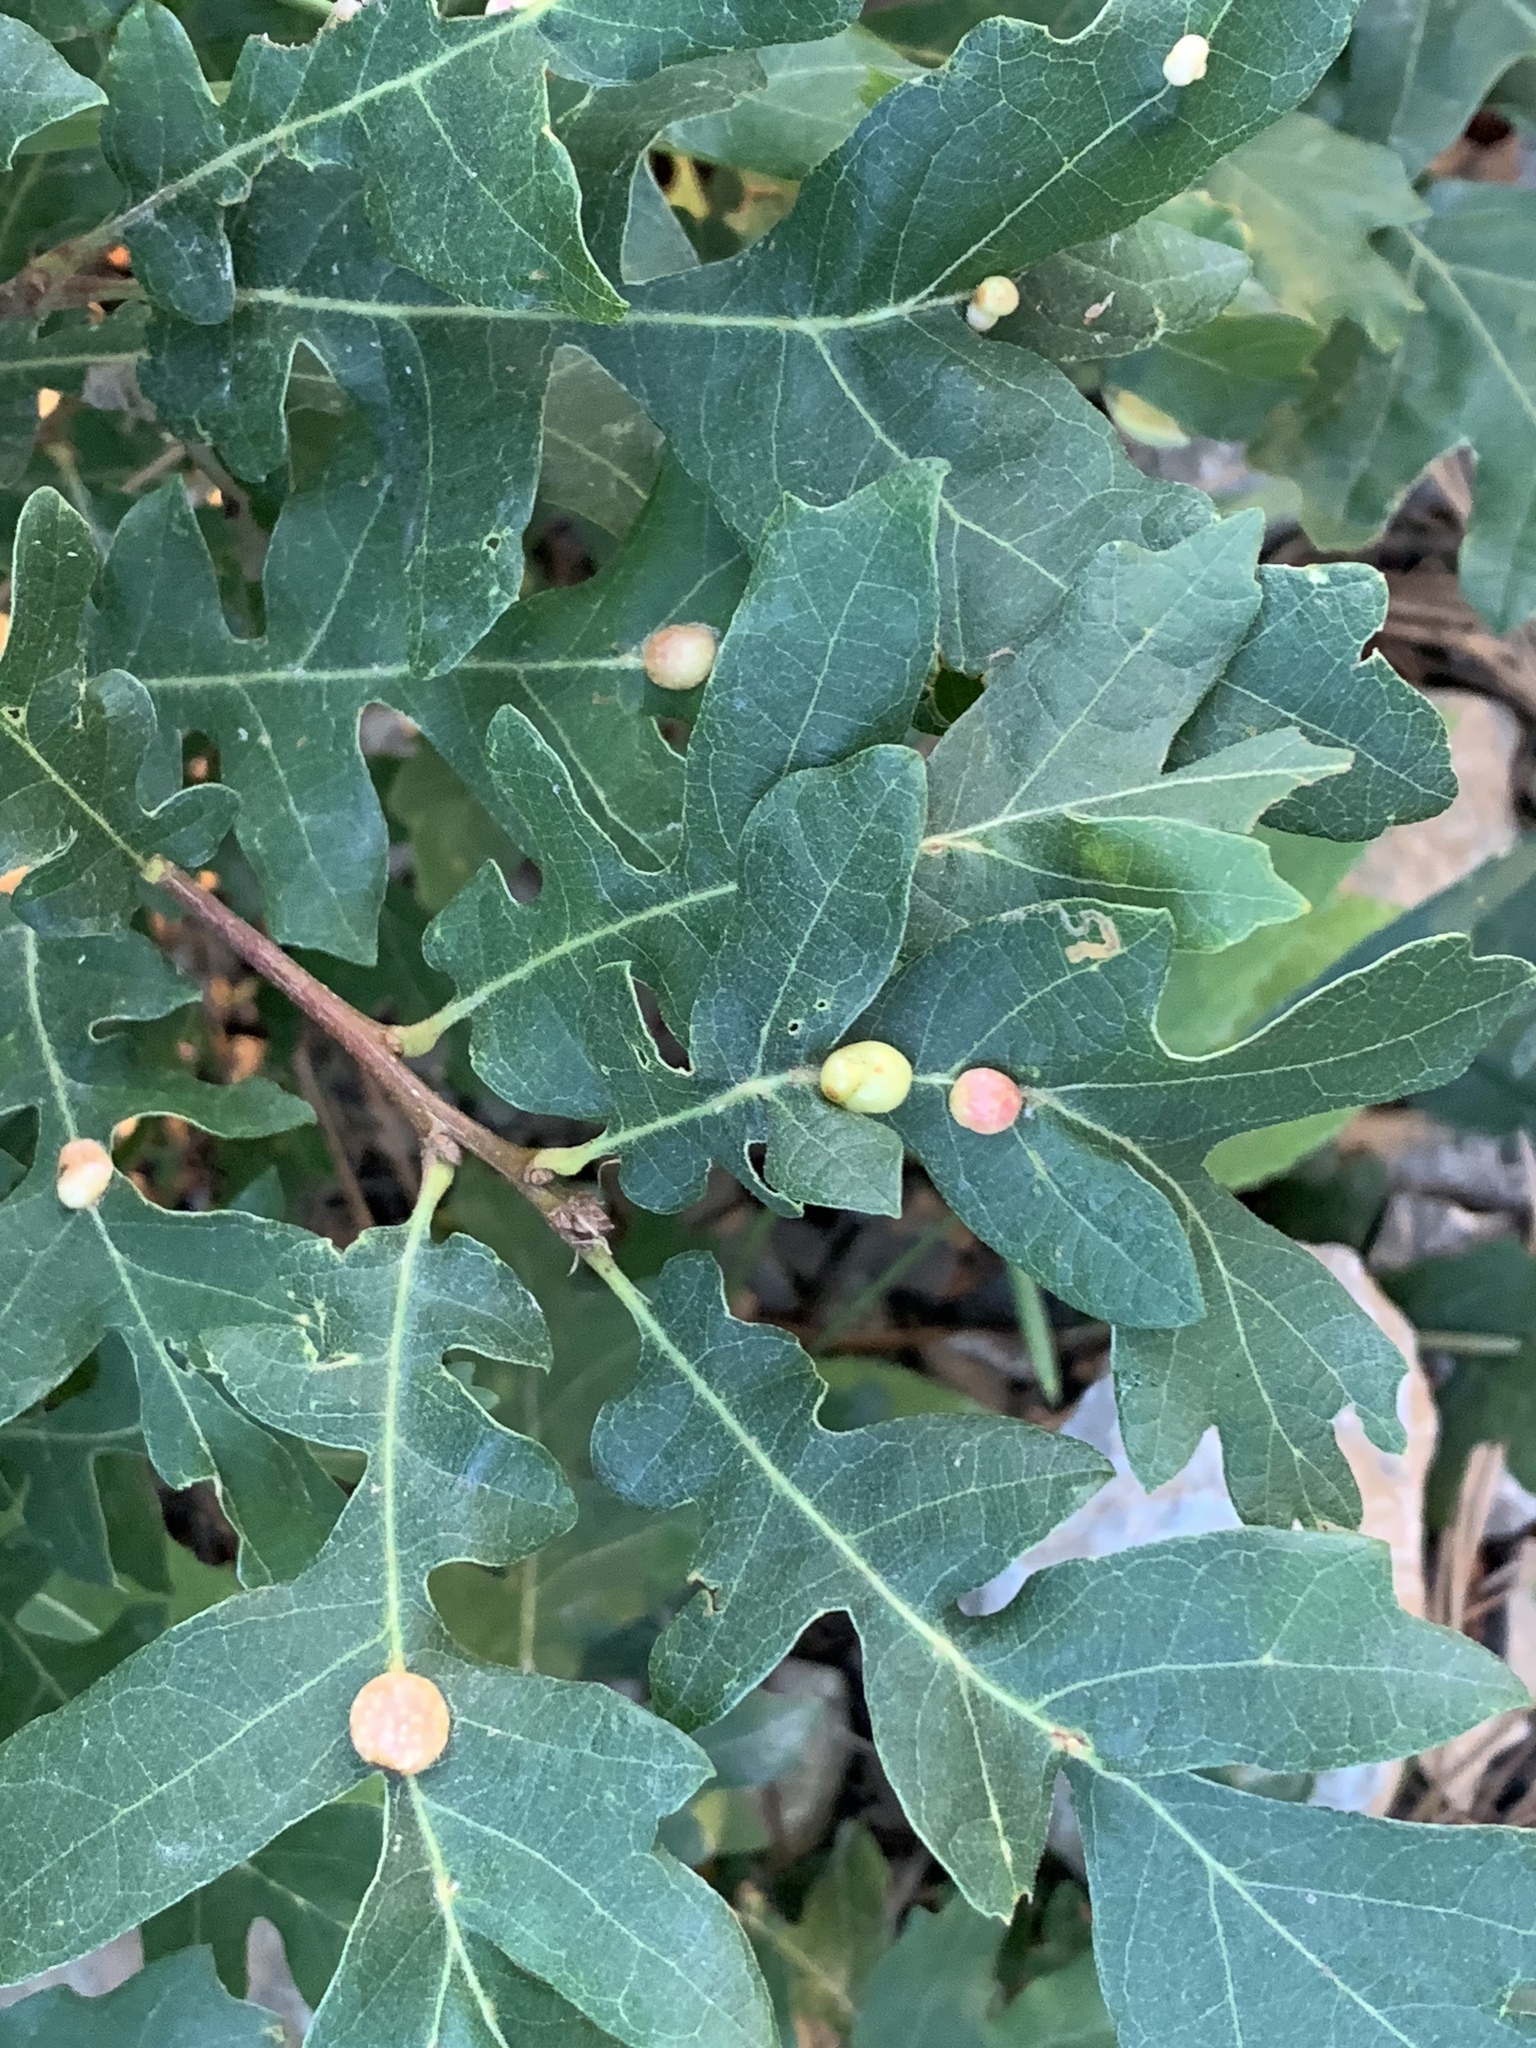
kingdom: Animalia
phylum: Arthropoda
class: Insecta
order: Hymenoptera
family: Cynipidae
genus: Trigonaspis
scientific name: Trigonaspis
